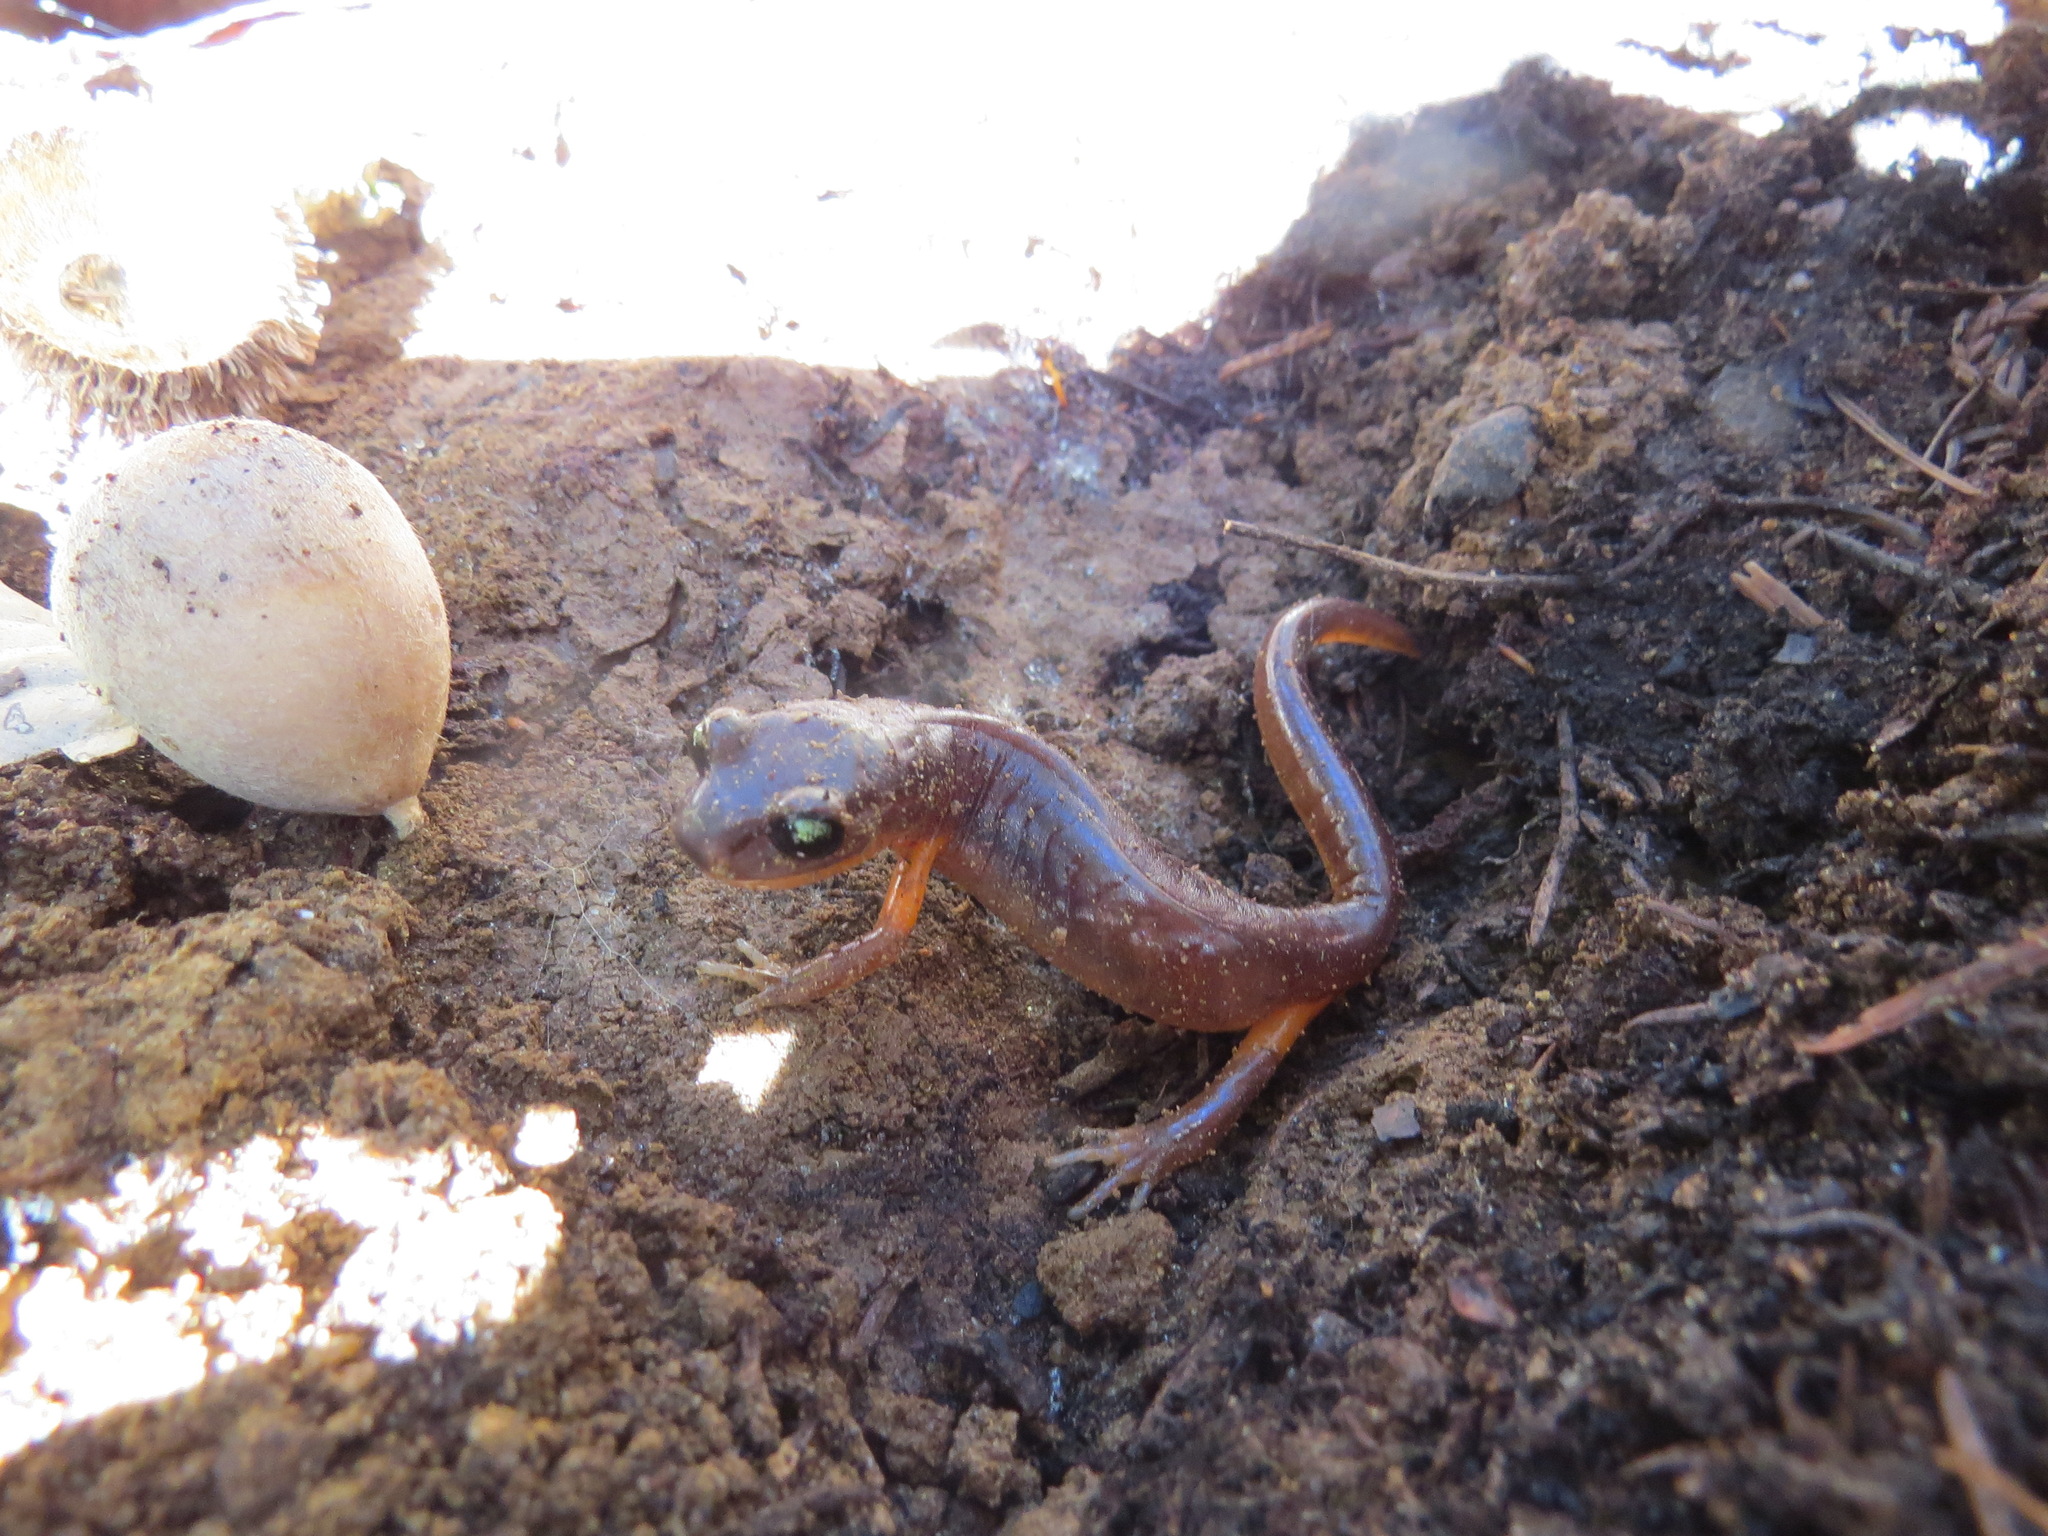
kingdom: Animalia
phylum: Chordata
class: Amphibia
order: Caudata
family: Plethodontidae
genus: Ensatina
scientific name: Ensatina eschscholtzii
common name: Ensatina
